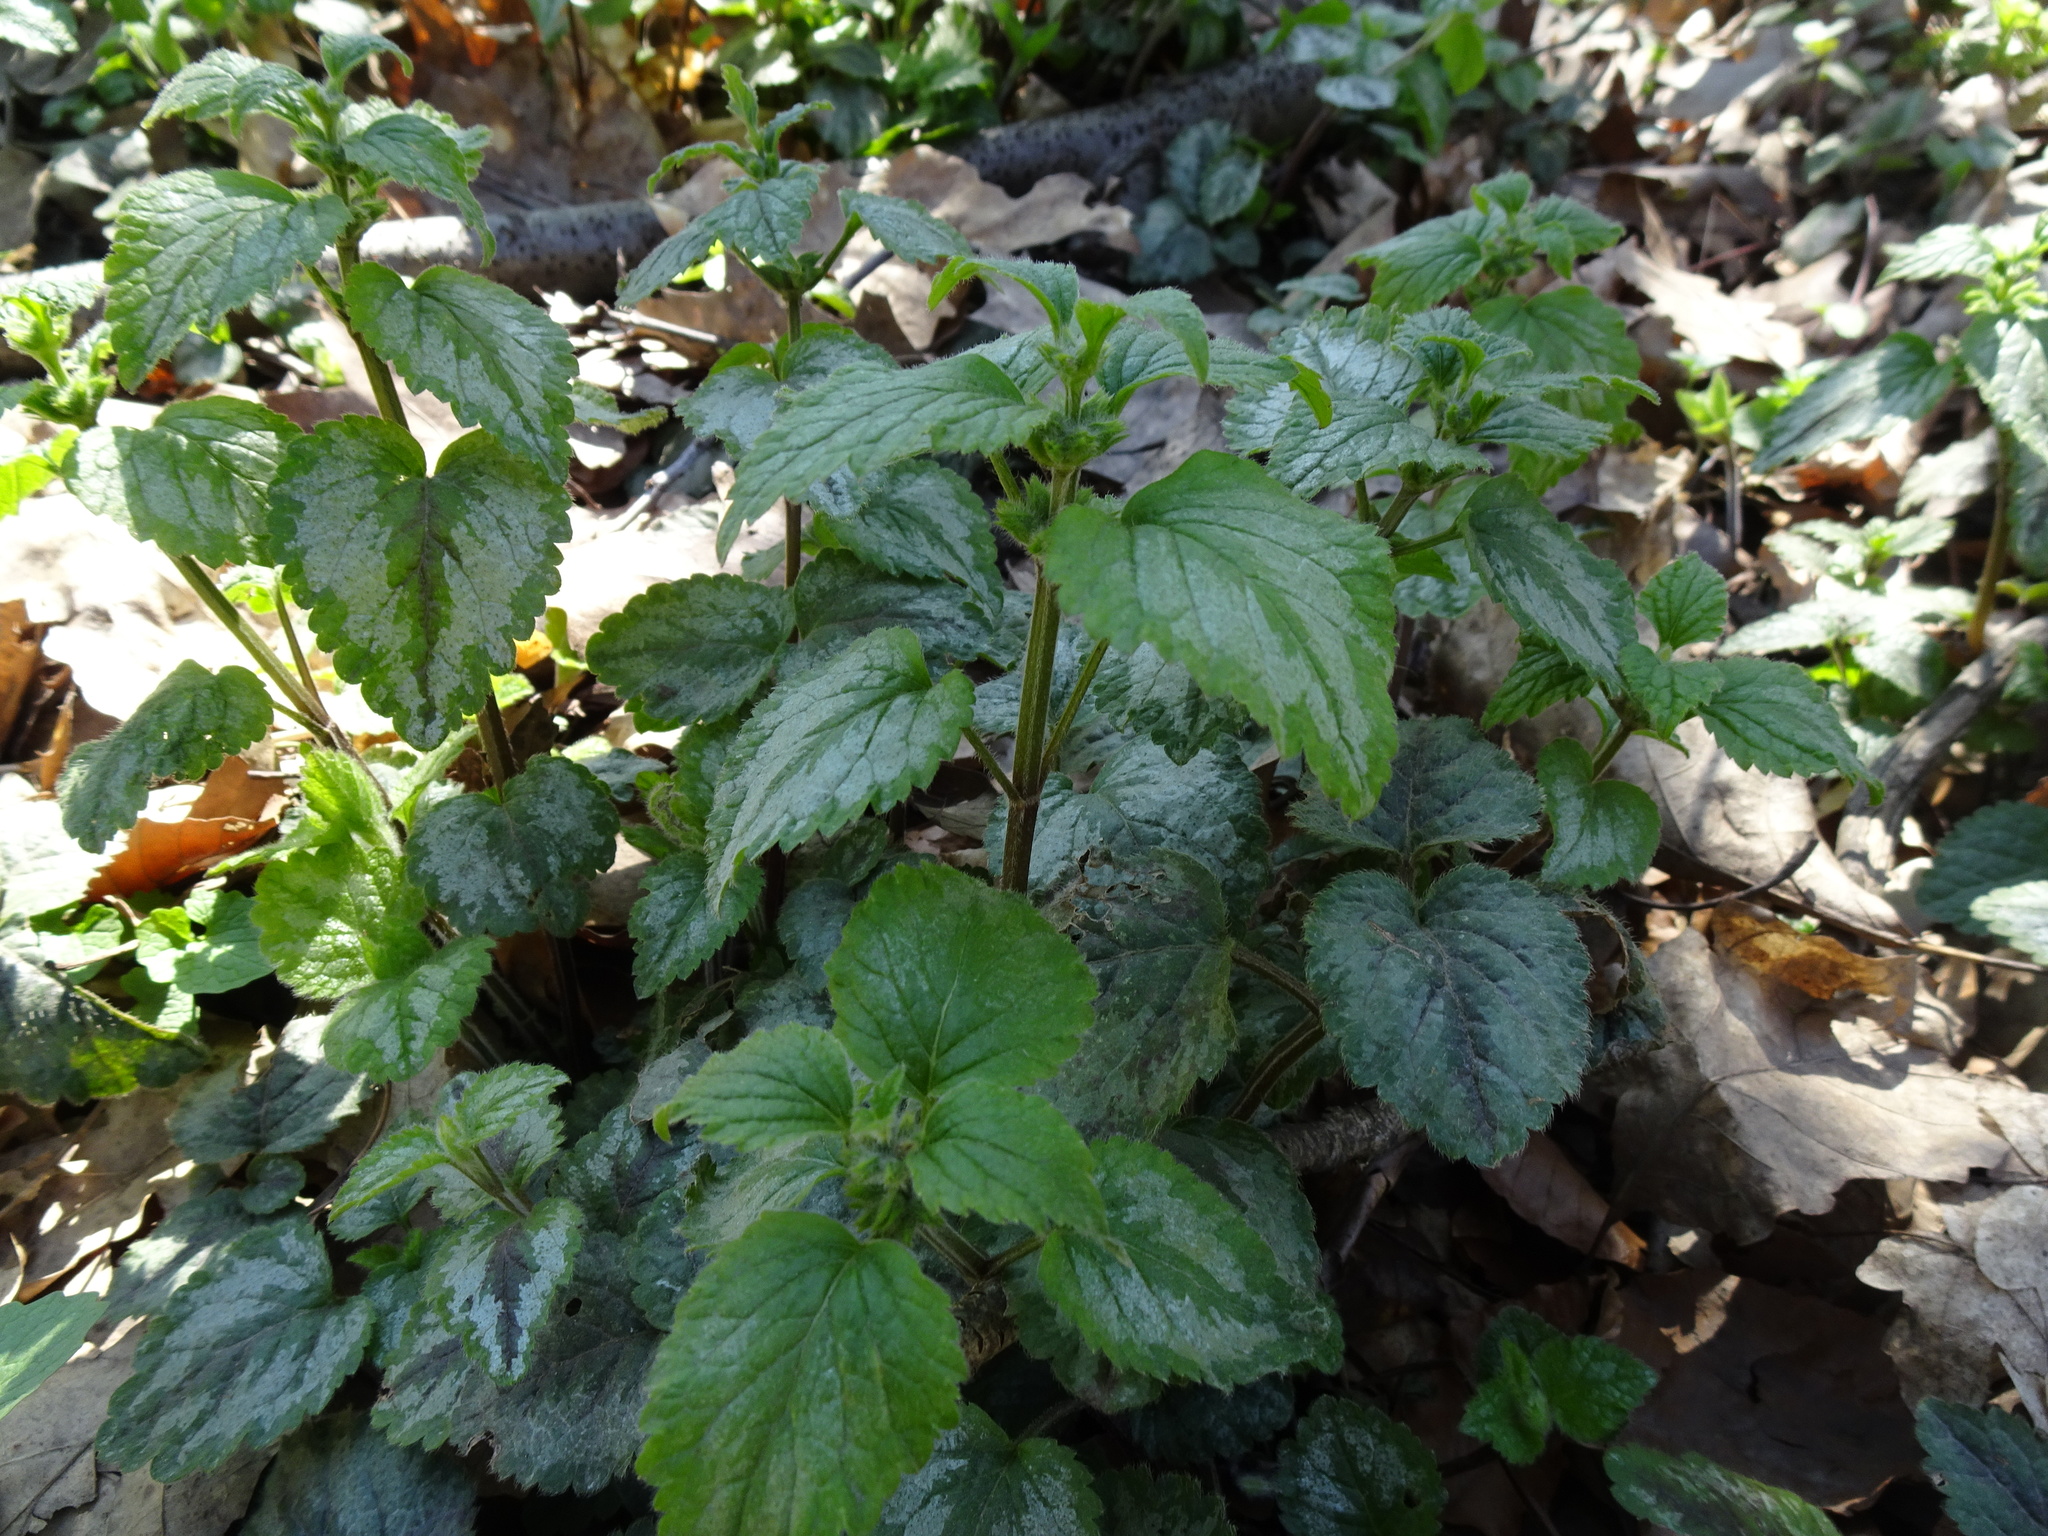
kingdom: Plantae
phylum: Tracheophyta
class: Magnoliopsida
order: Lamiales
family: Lamiaceae
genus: Lamium
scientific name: Lamium galeobdolon
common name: Yellow archangel
